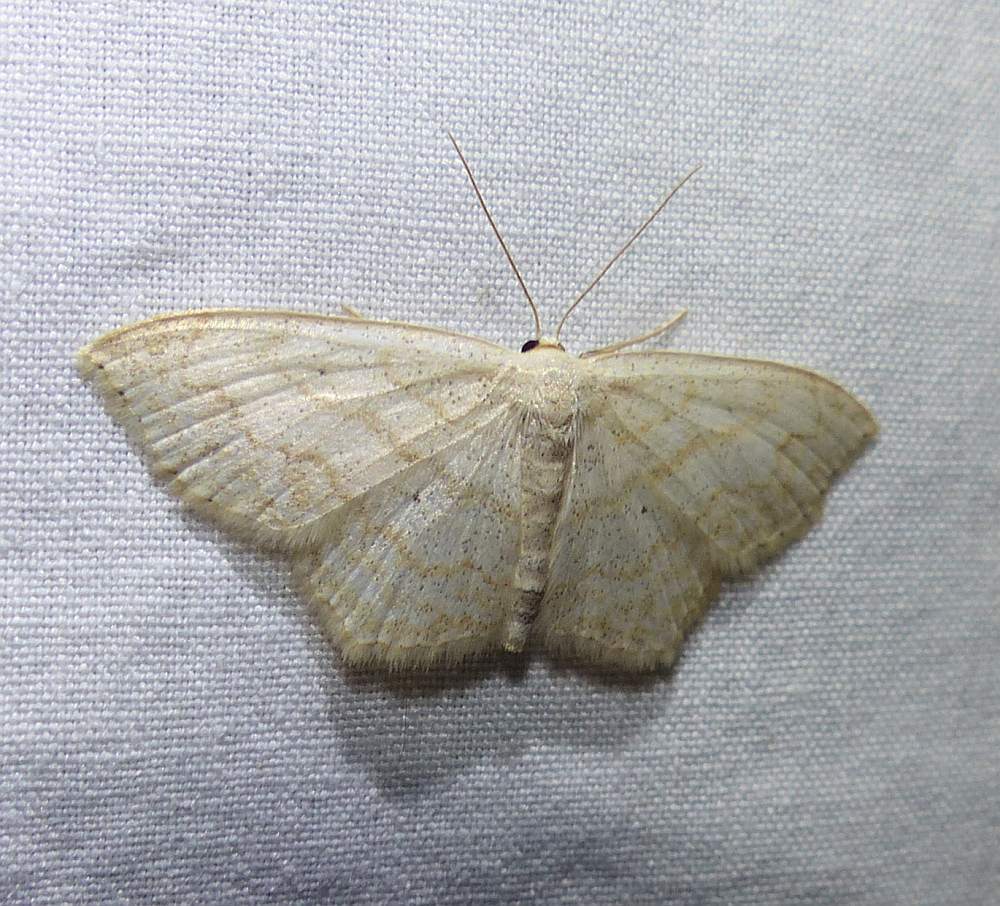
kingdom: Animalia
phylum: Arthropoda
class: Insecta
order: Lepidoptera
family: Geometridae
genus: Scopula
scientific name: Scopula limboundata
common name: Large lace border
